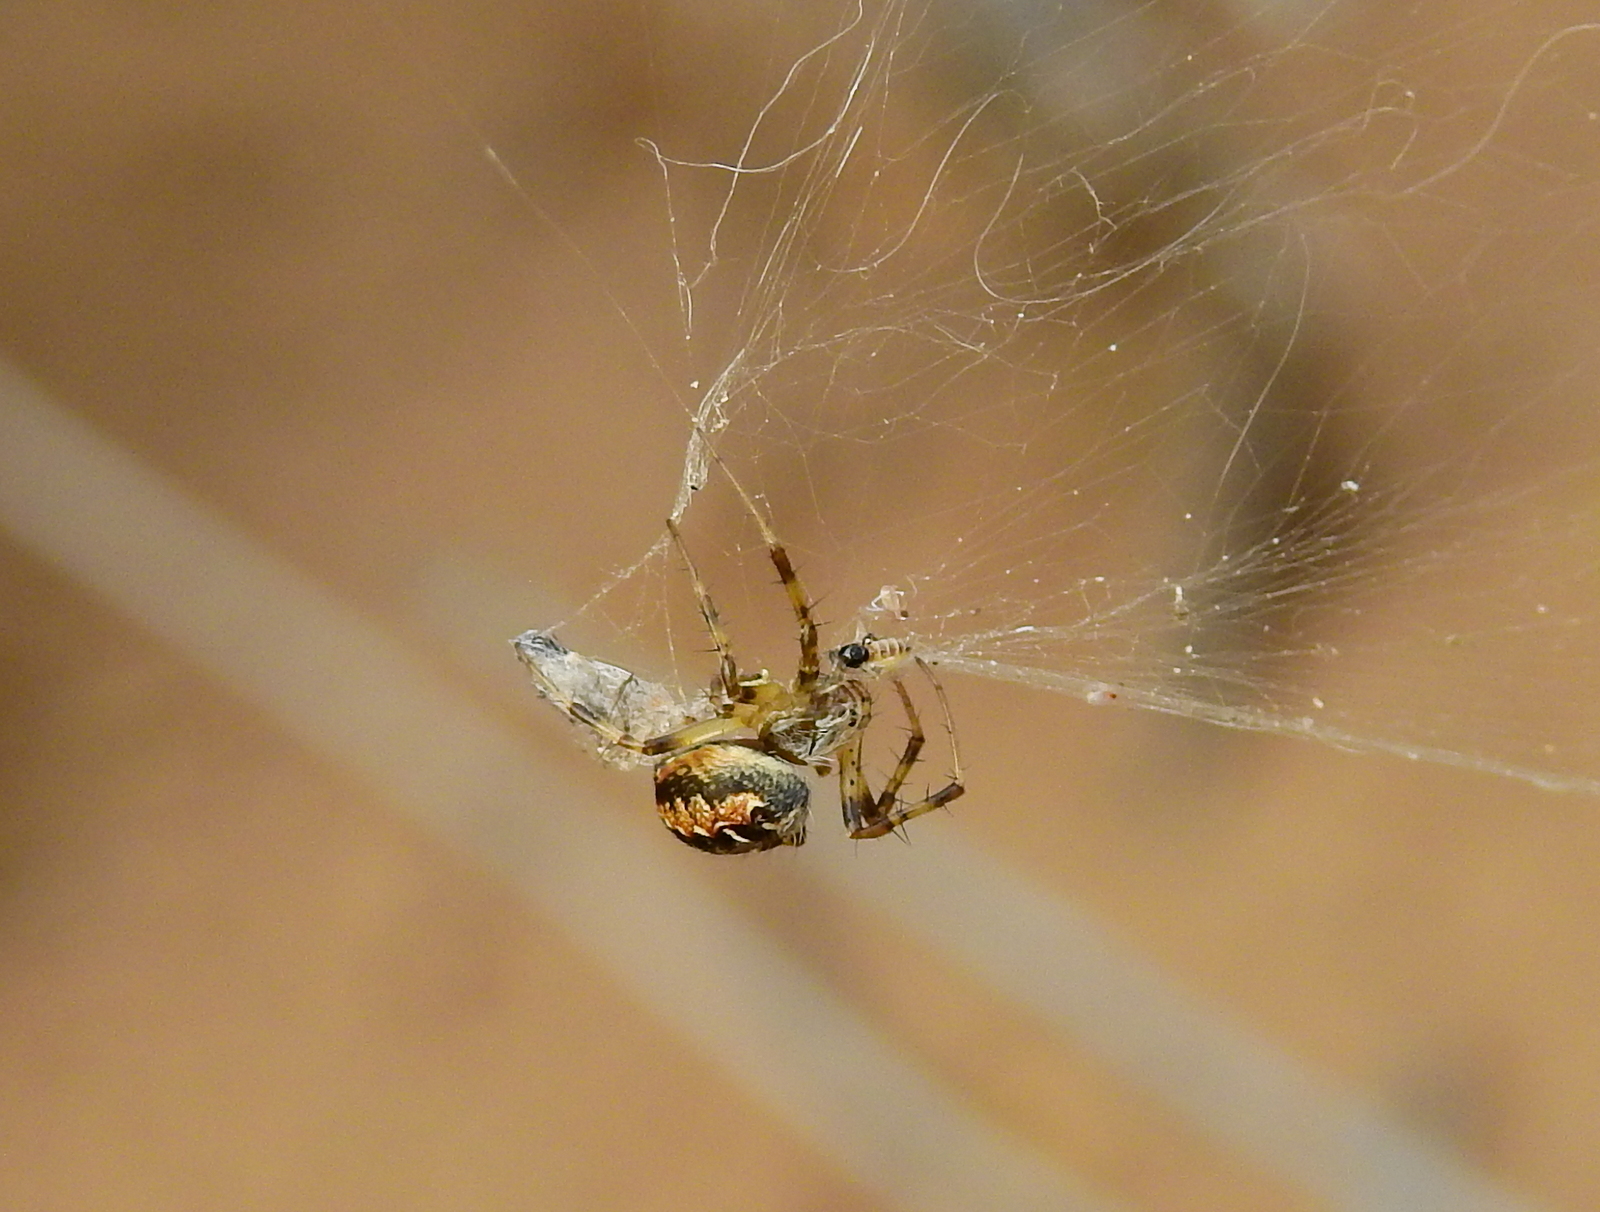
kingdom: Animalia
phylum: Arthropoda
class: Arachnida
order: Araneae
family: Araneidae
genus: Metepeira
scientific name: Metepeira
